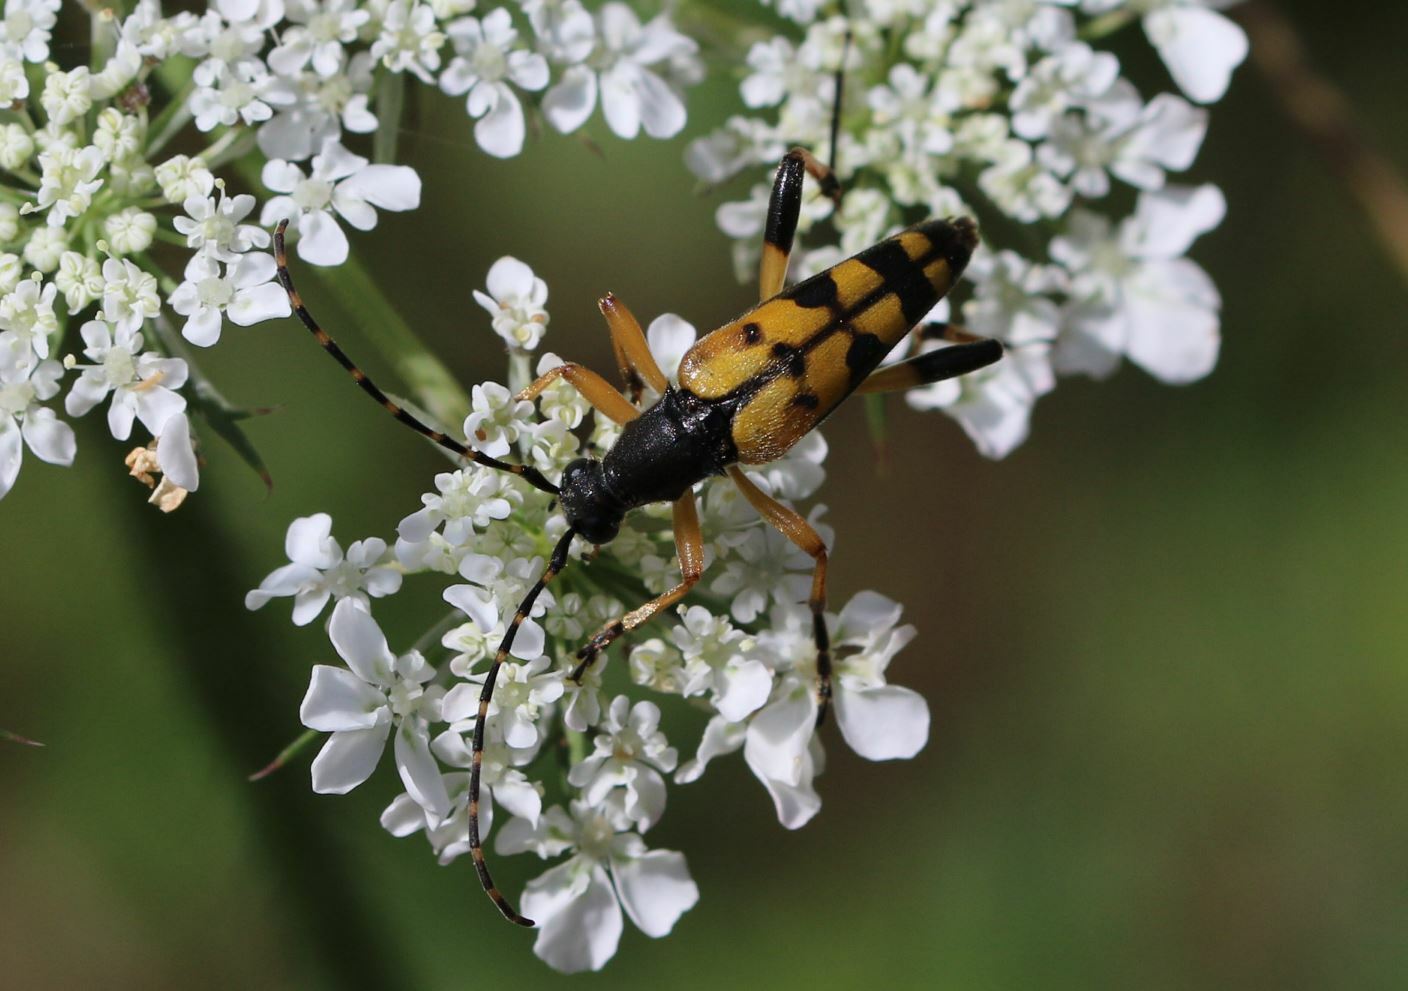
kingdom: Animalia
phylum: Arthropoda
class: Insecta
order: Coleoptera
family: Cerambycidae
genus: Rutpela
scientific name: Rutpela maculata
